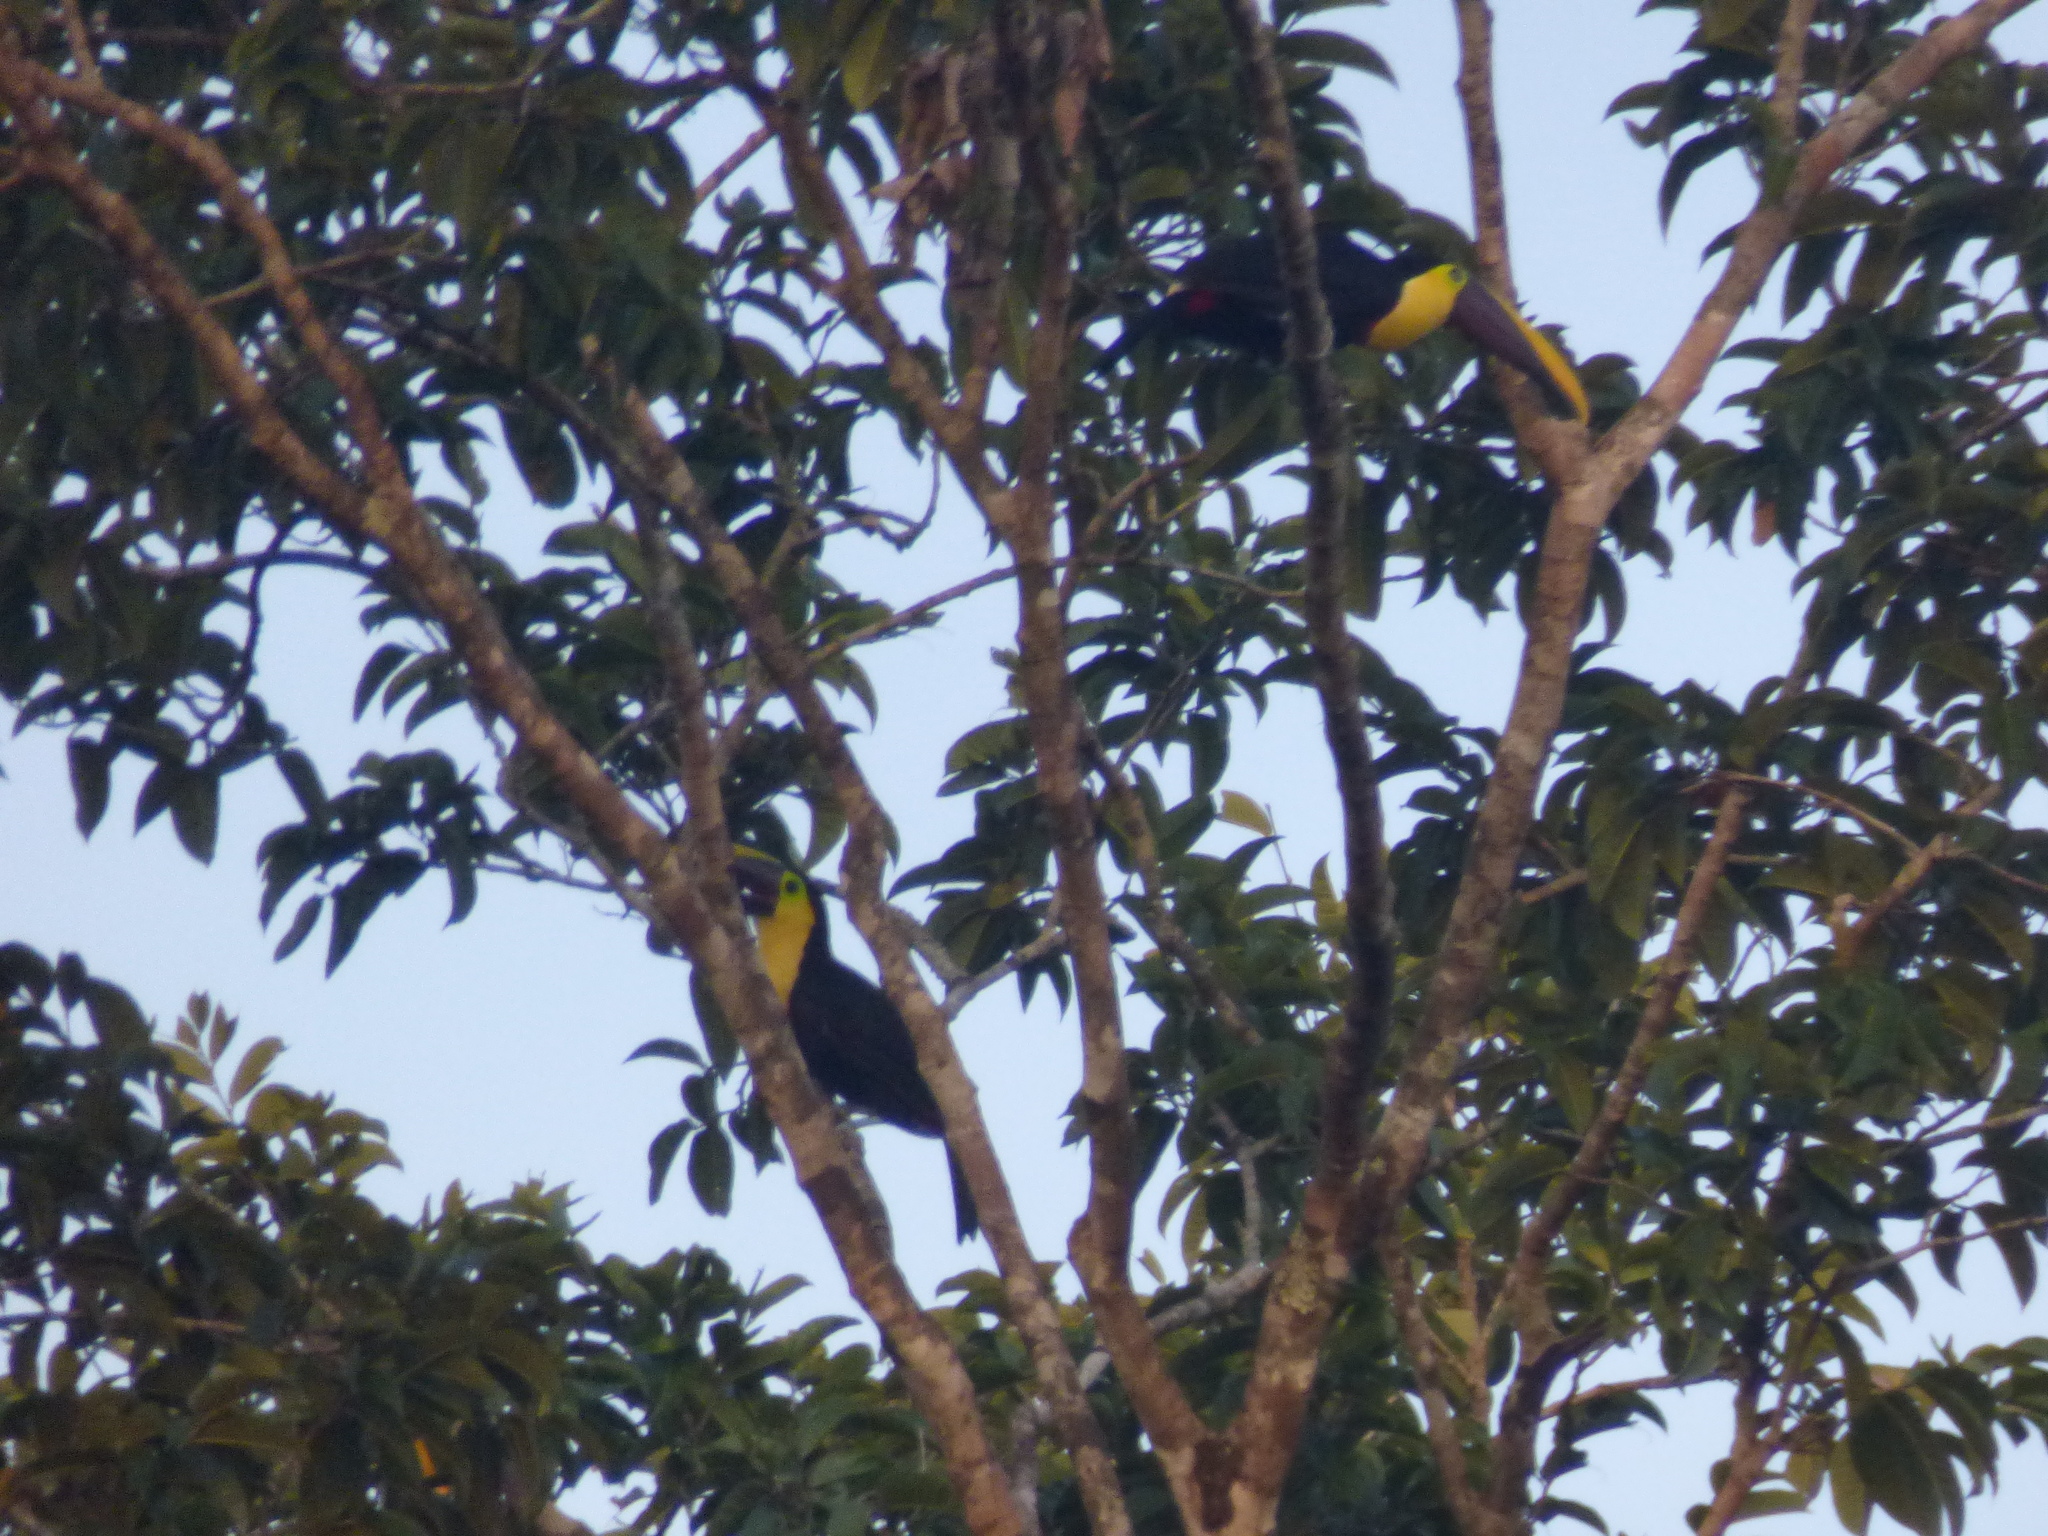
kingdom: Animalia
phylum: Chordata
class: Aves
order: Piciformes
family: Ramphastidae
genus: Ramphastos
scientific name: Ramphastos ambiguus
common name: Yellow-throated toucan
